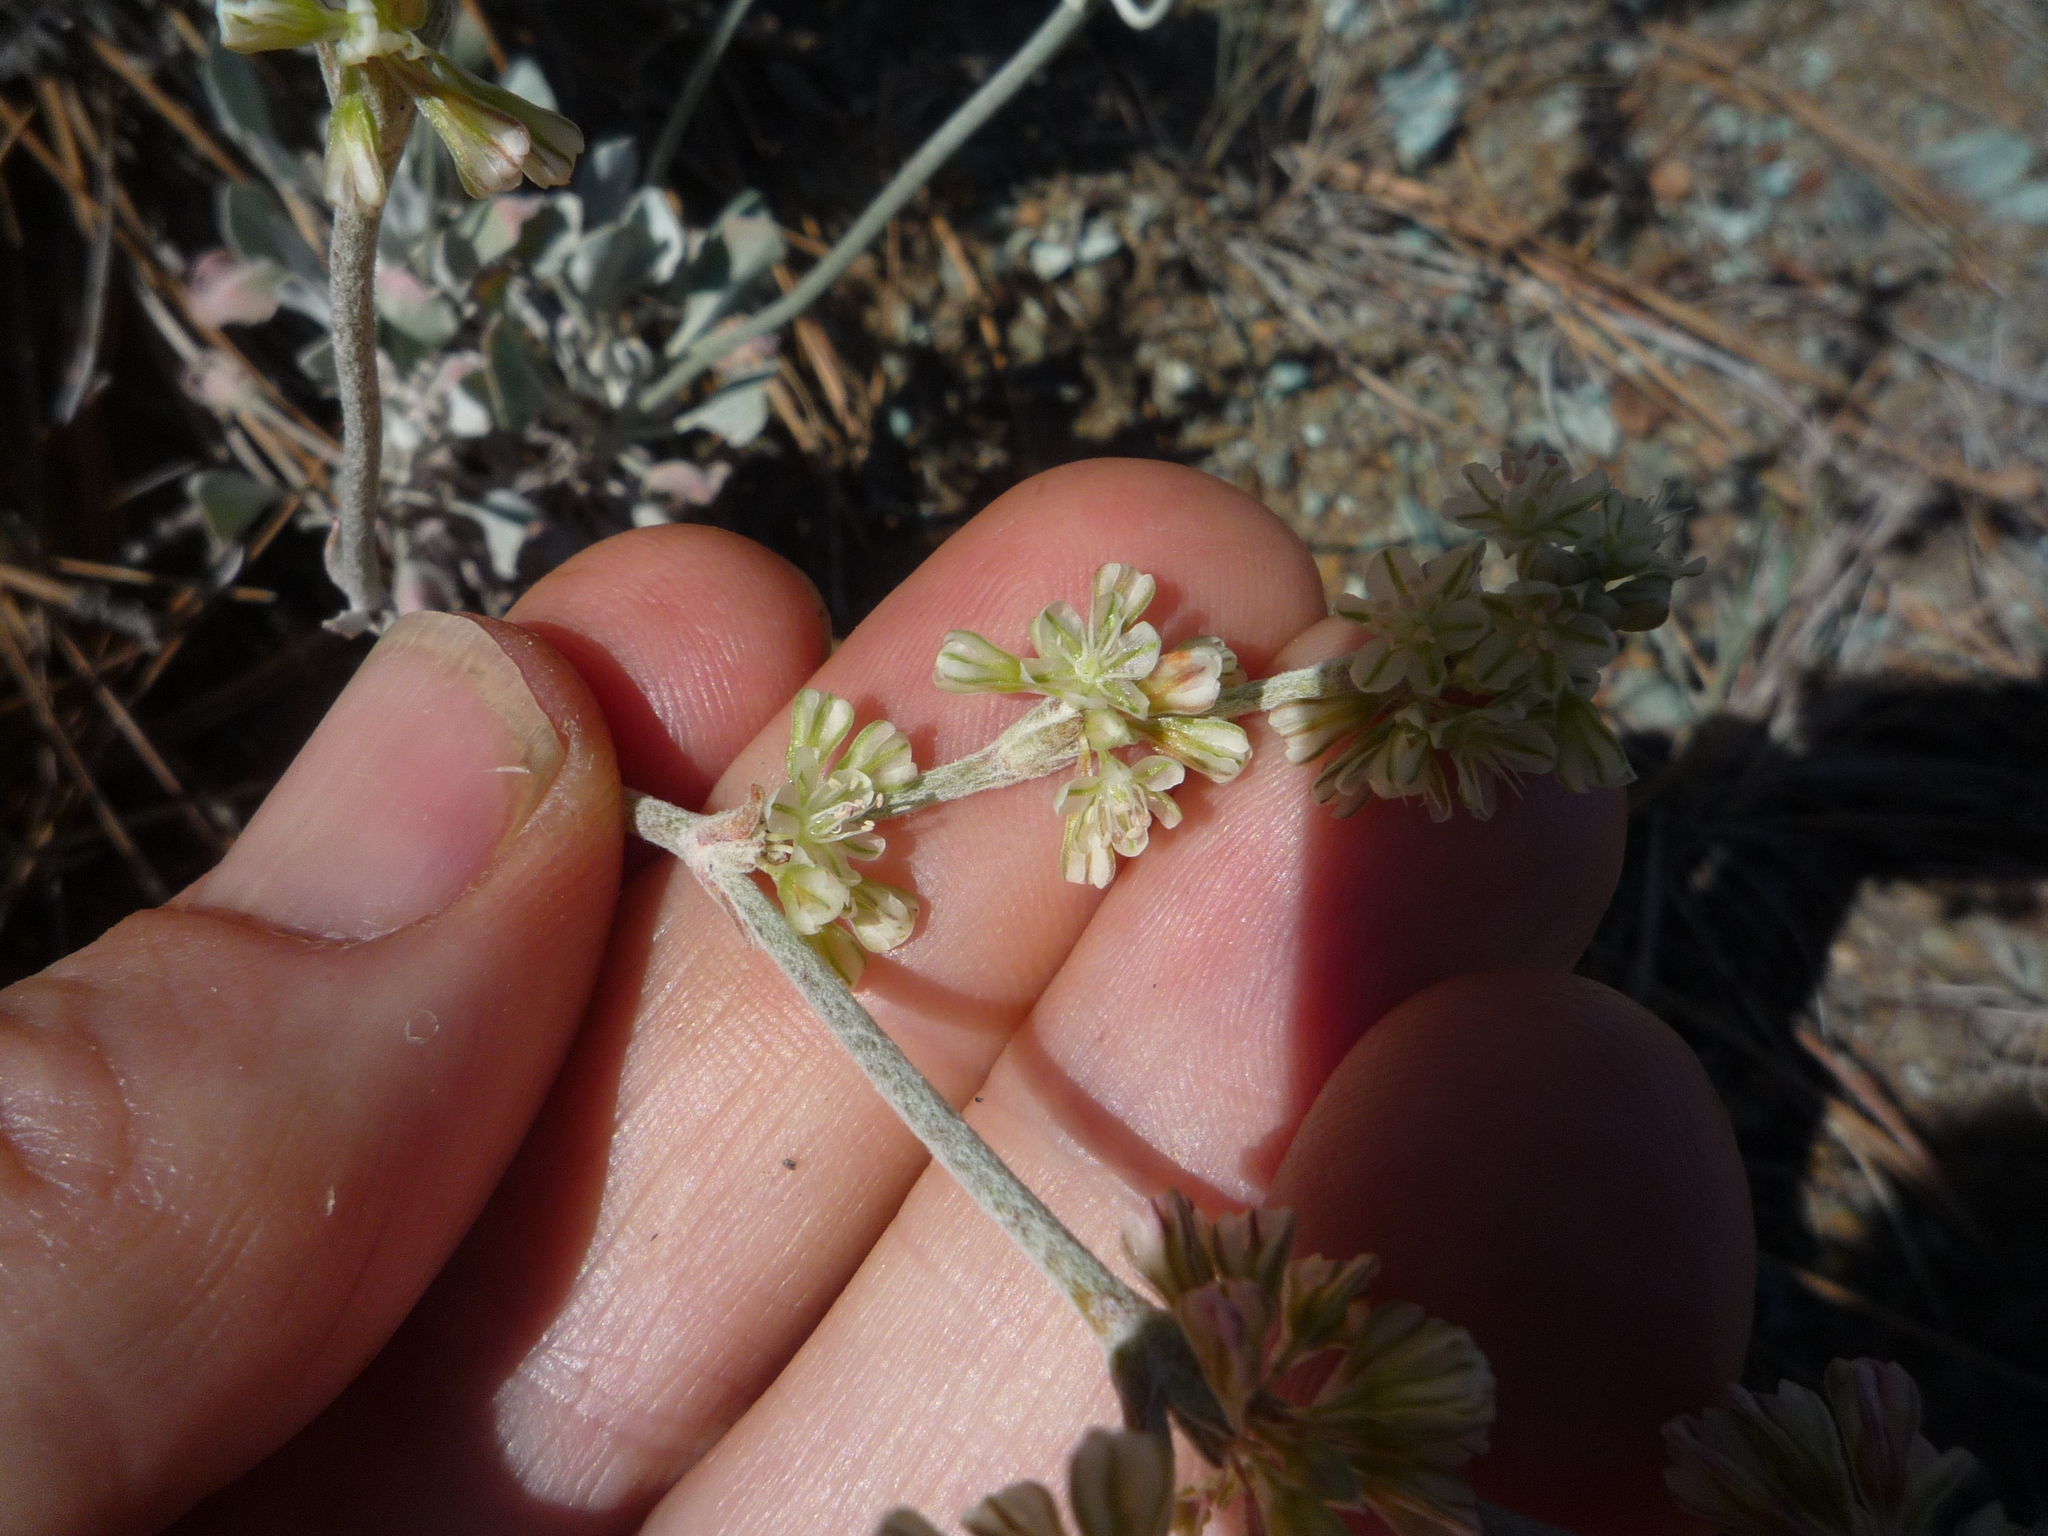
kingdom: Plantae
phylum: Tracheophyta
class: Magnoliopsida
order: Caryophyllales
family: Polygonaceae
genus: Eriogonum
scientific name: Eriogonum saxatile
